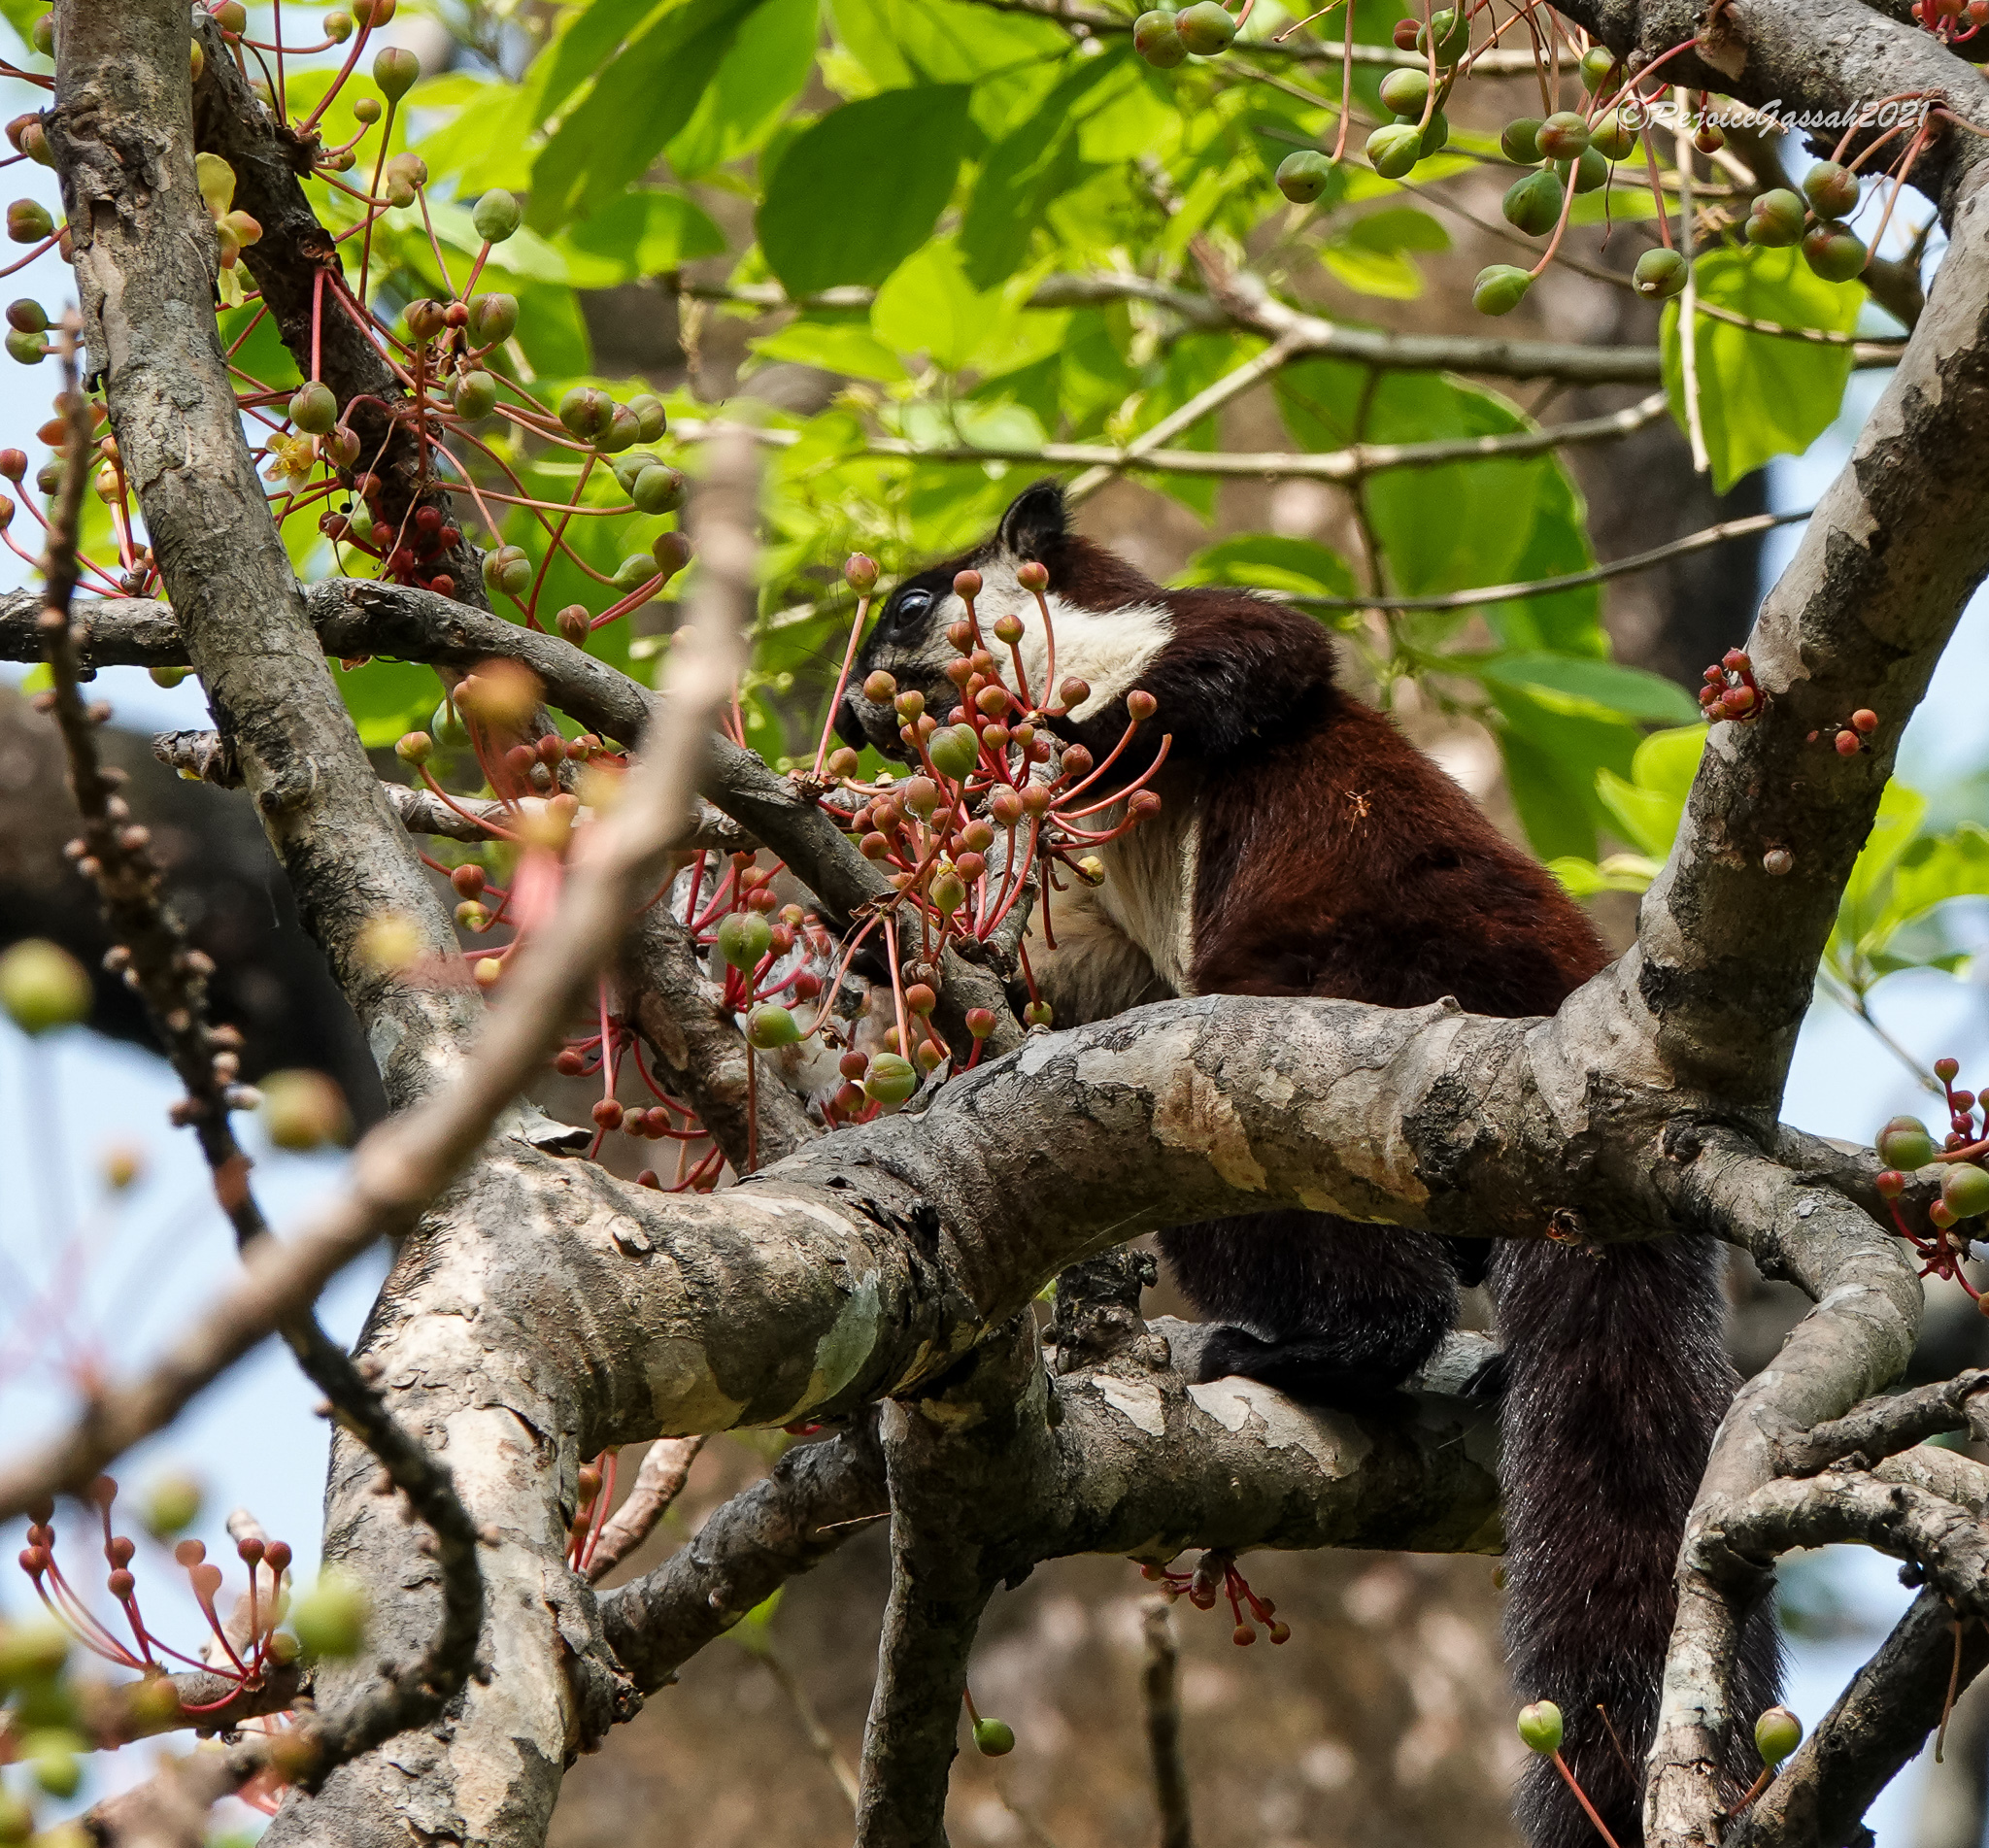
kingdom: Animalia
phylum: Chordata
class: Mammalia
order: Rodentia
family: Sciuridae
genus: Ratufa
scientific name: Ratufa bicolor
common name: Black giant squirrel
